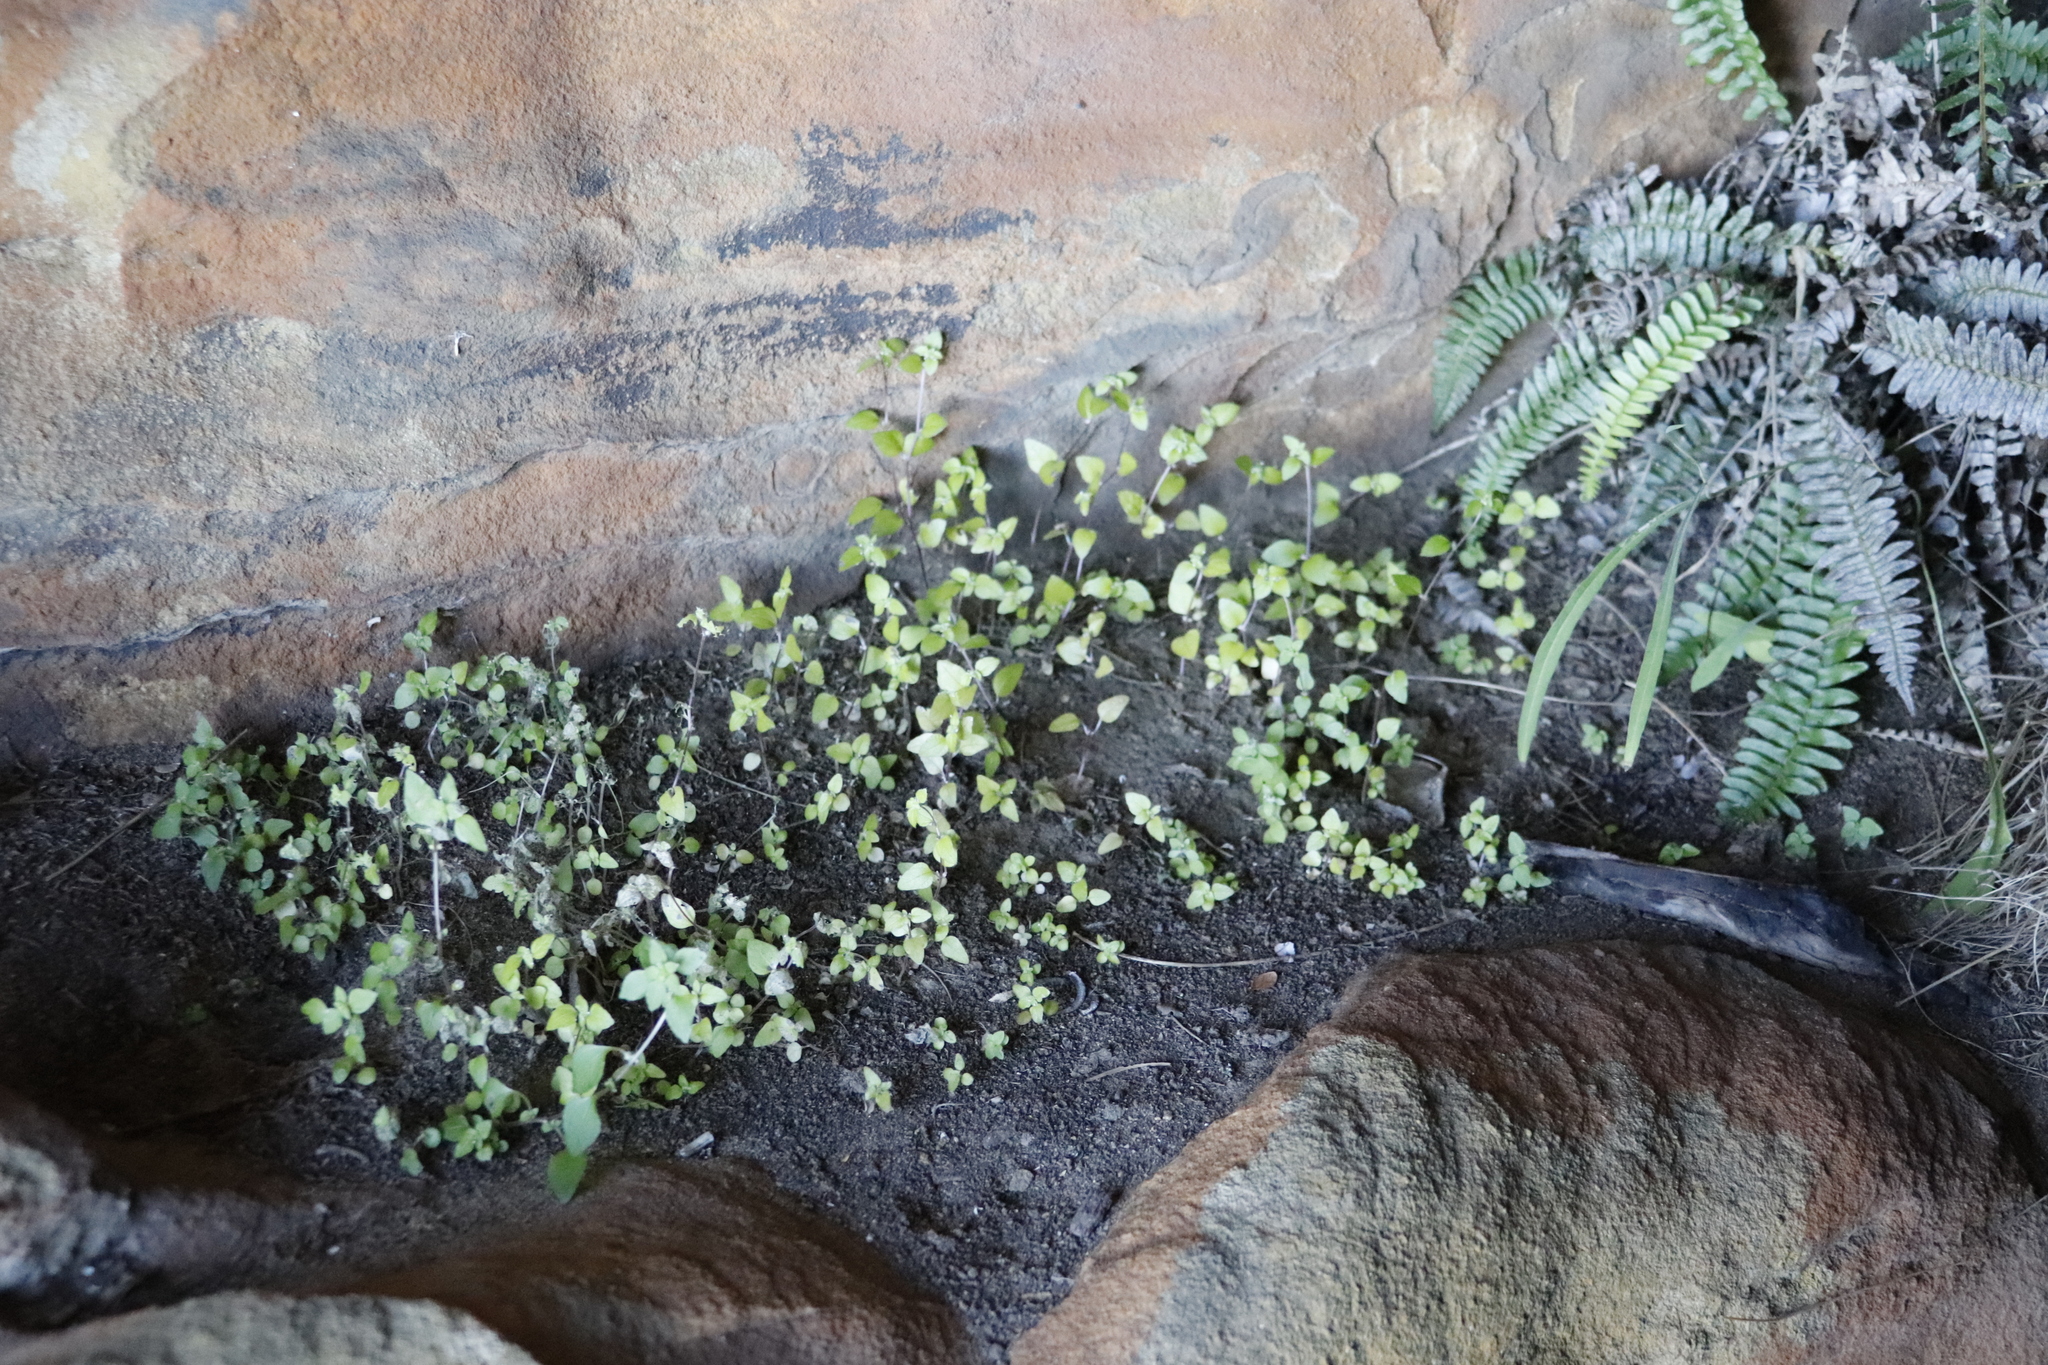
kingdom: Plantae
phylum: Tracheophyta
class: Magnoliopsida
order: Rosales
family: Urticaceae
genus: Didymodoxa
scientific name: Didymodoxa capensis
